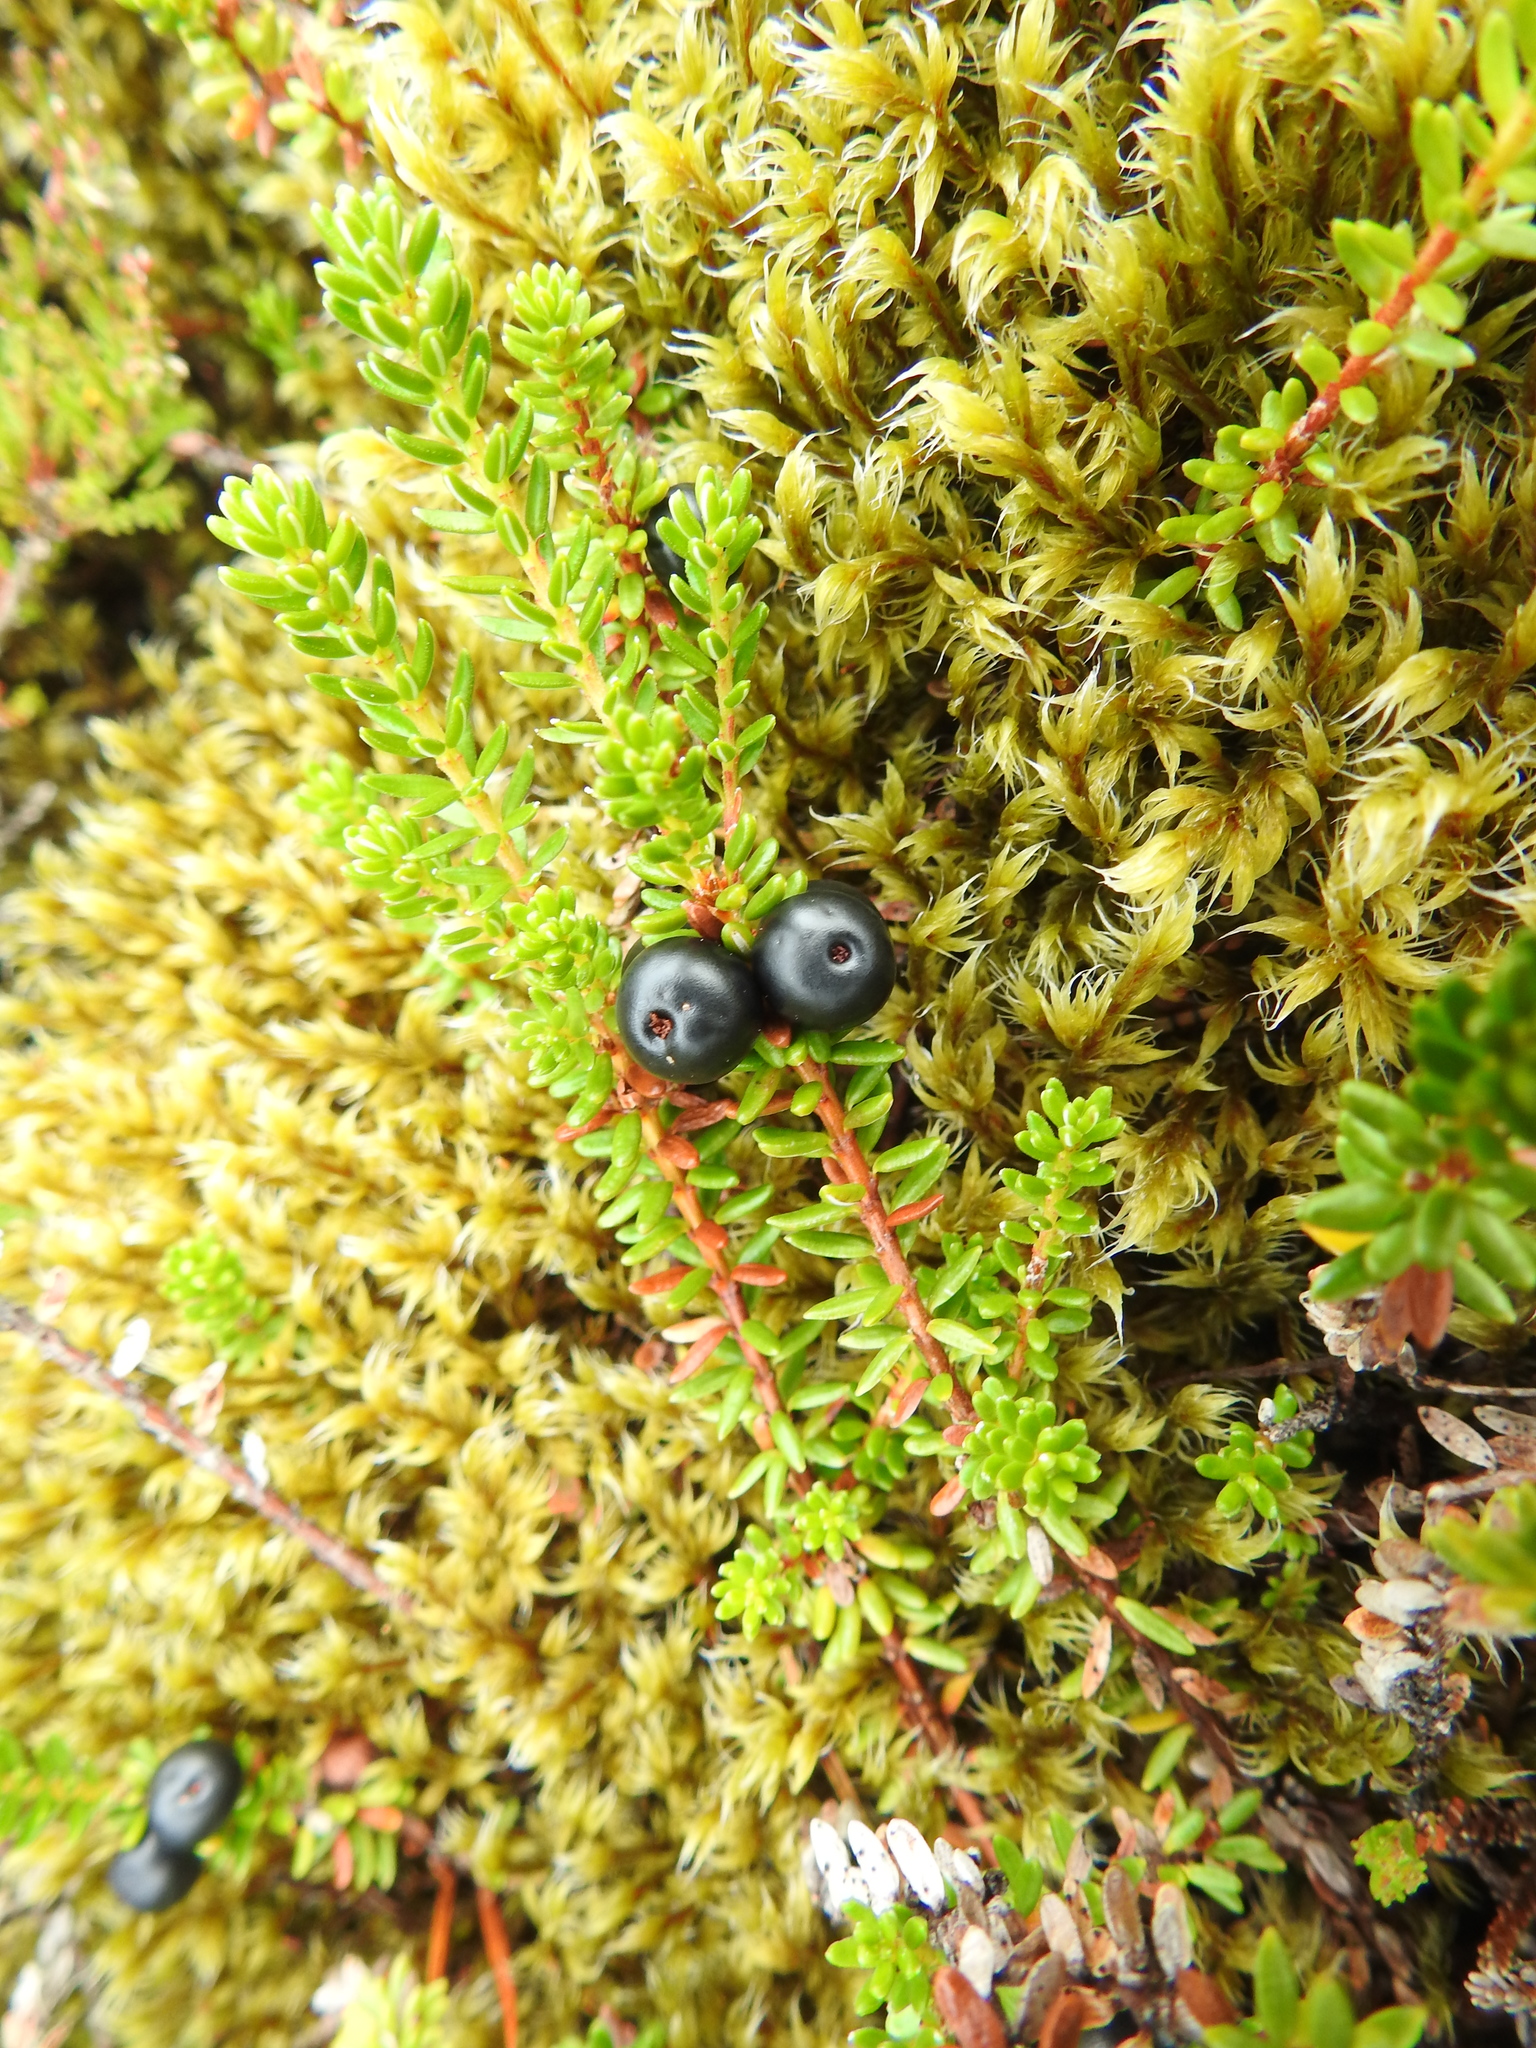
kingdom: Plantae
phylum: Tracheophyta
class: Magnoliopsida
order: Ericales
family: Ericaceae
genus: Empetrum
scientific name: Empetrum nigrum
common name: Black crowberry
